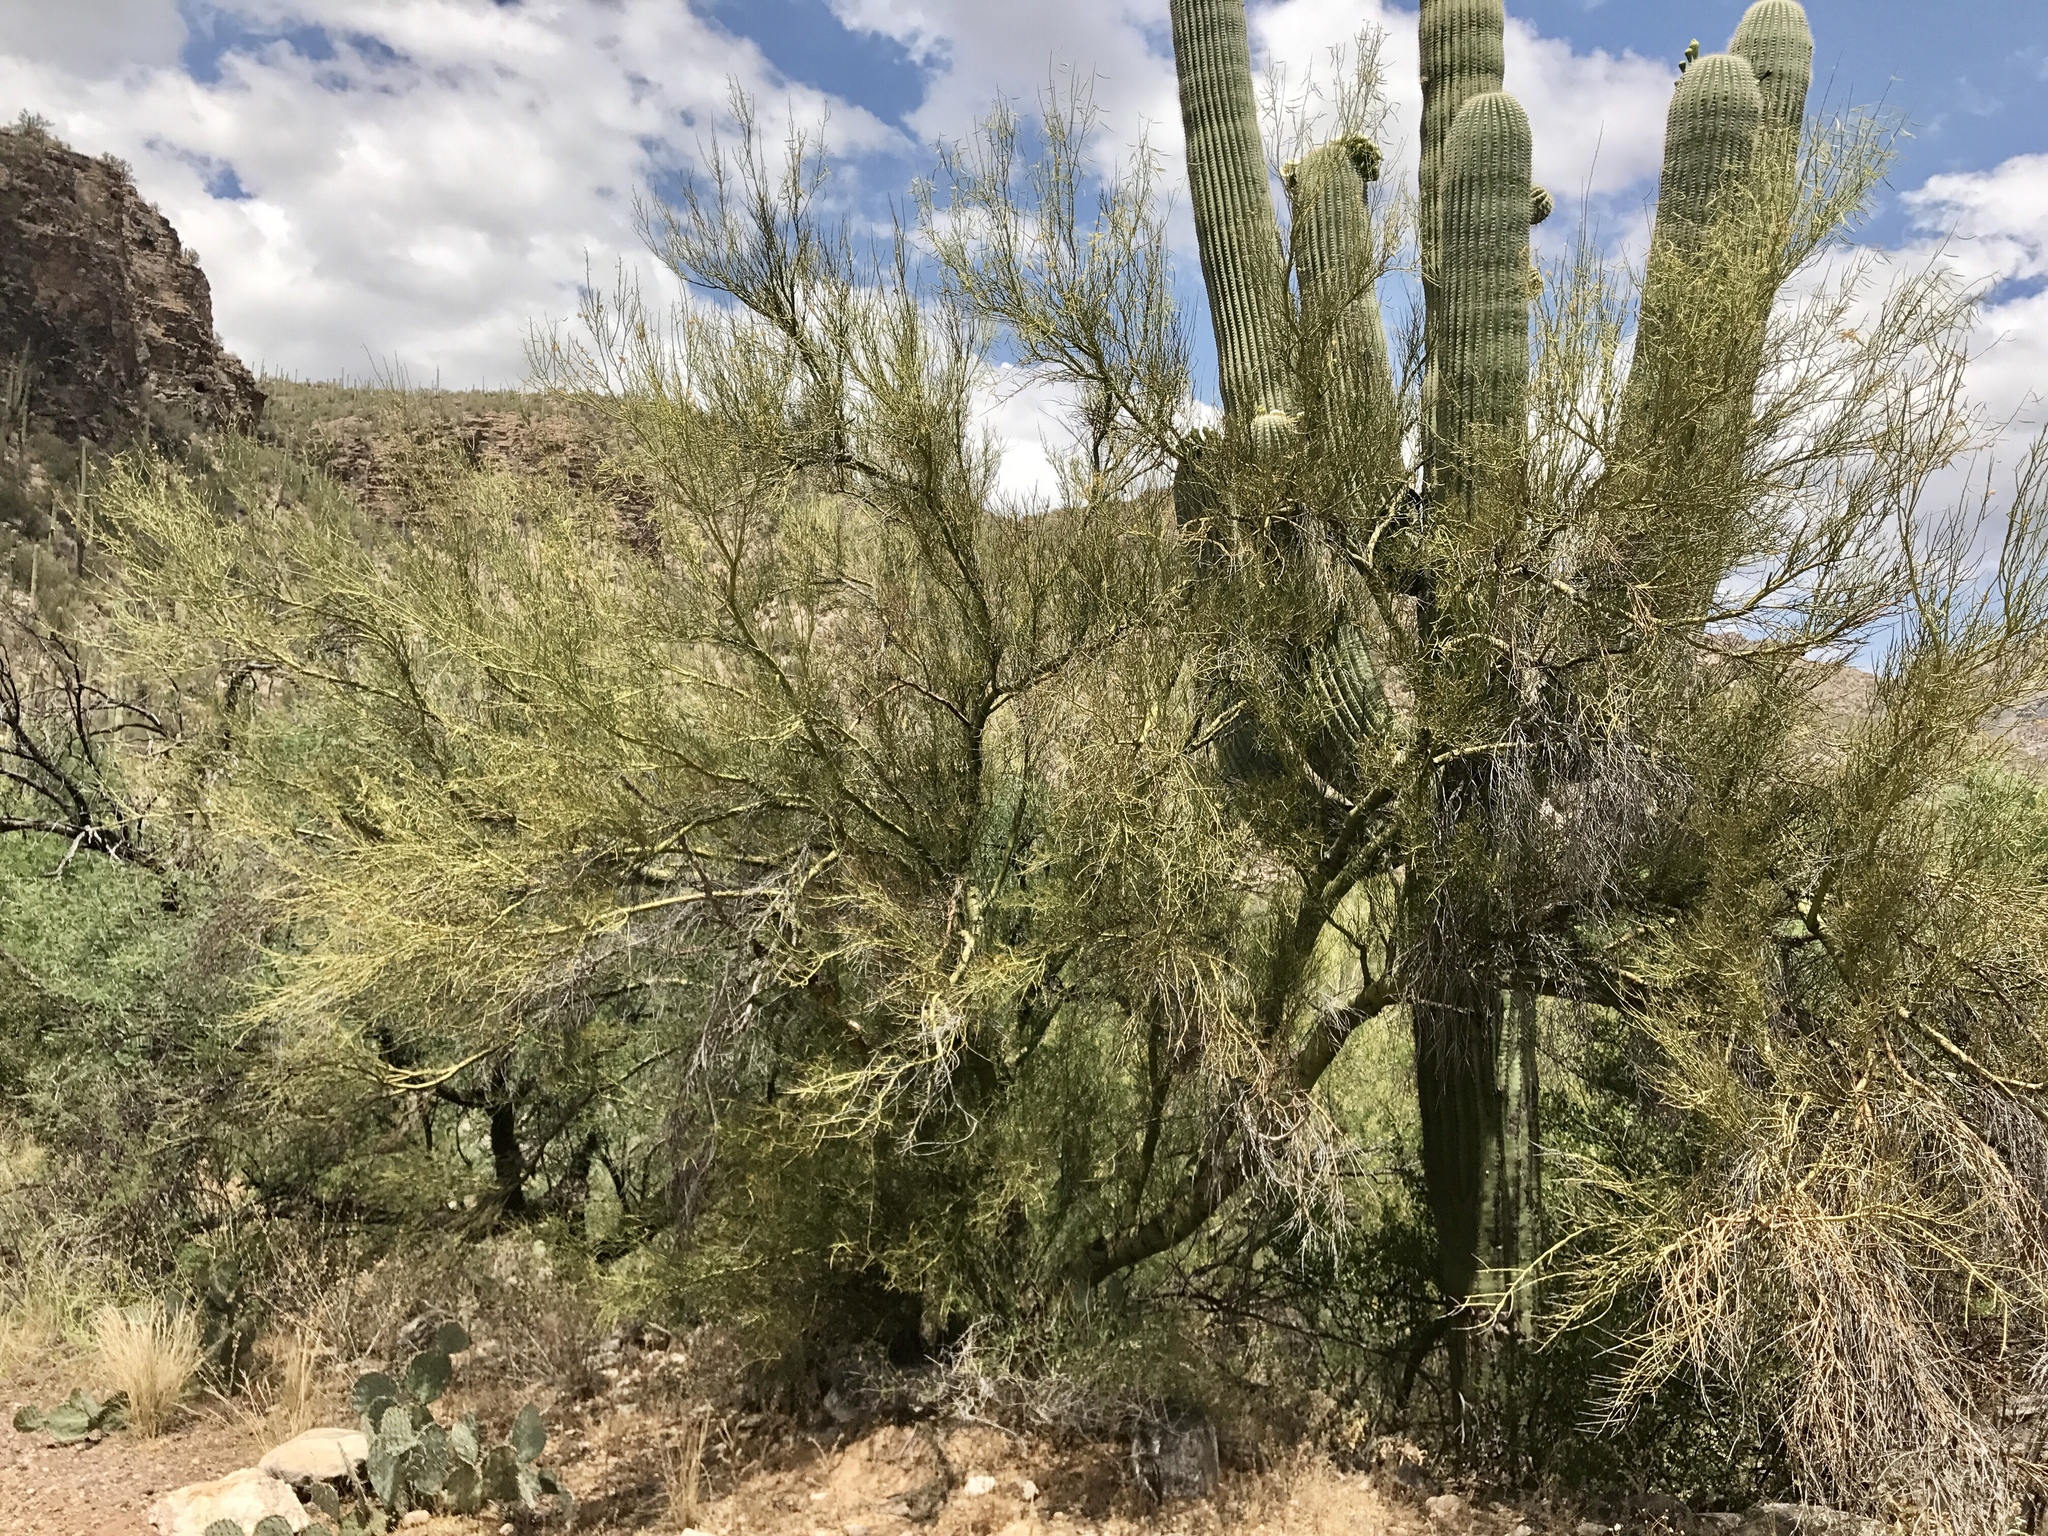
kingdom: Plantae
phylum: Tracheophyta
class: Magnoliopsida
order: Fabales
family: Fabaceae
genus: Parkinsonia
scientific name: Parkinsonia microphylla
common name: Yellow paloverde
